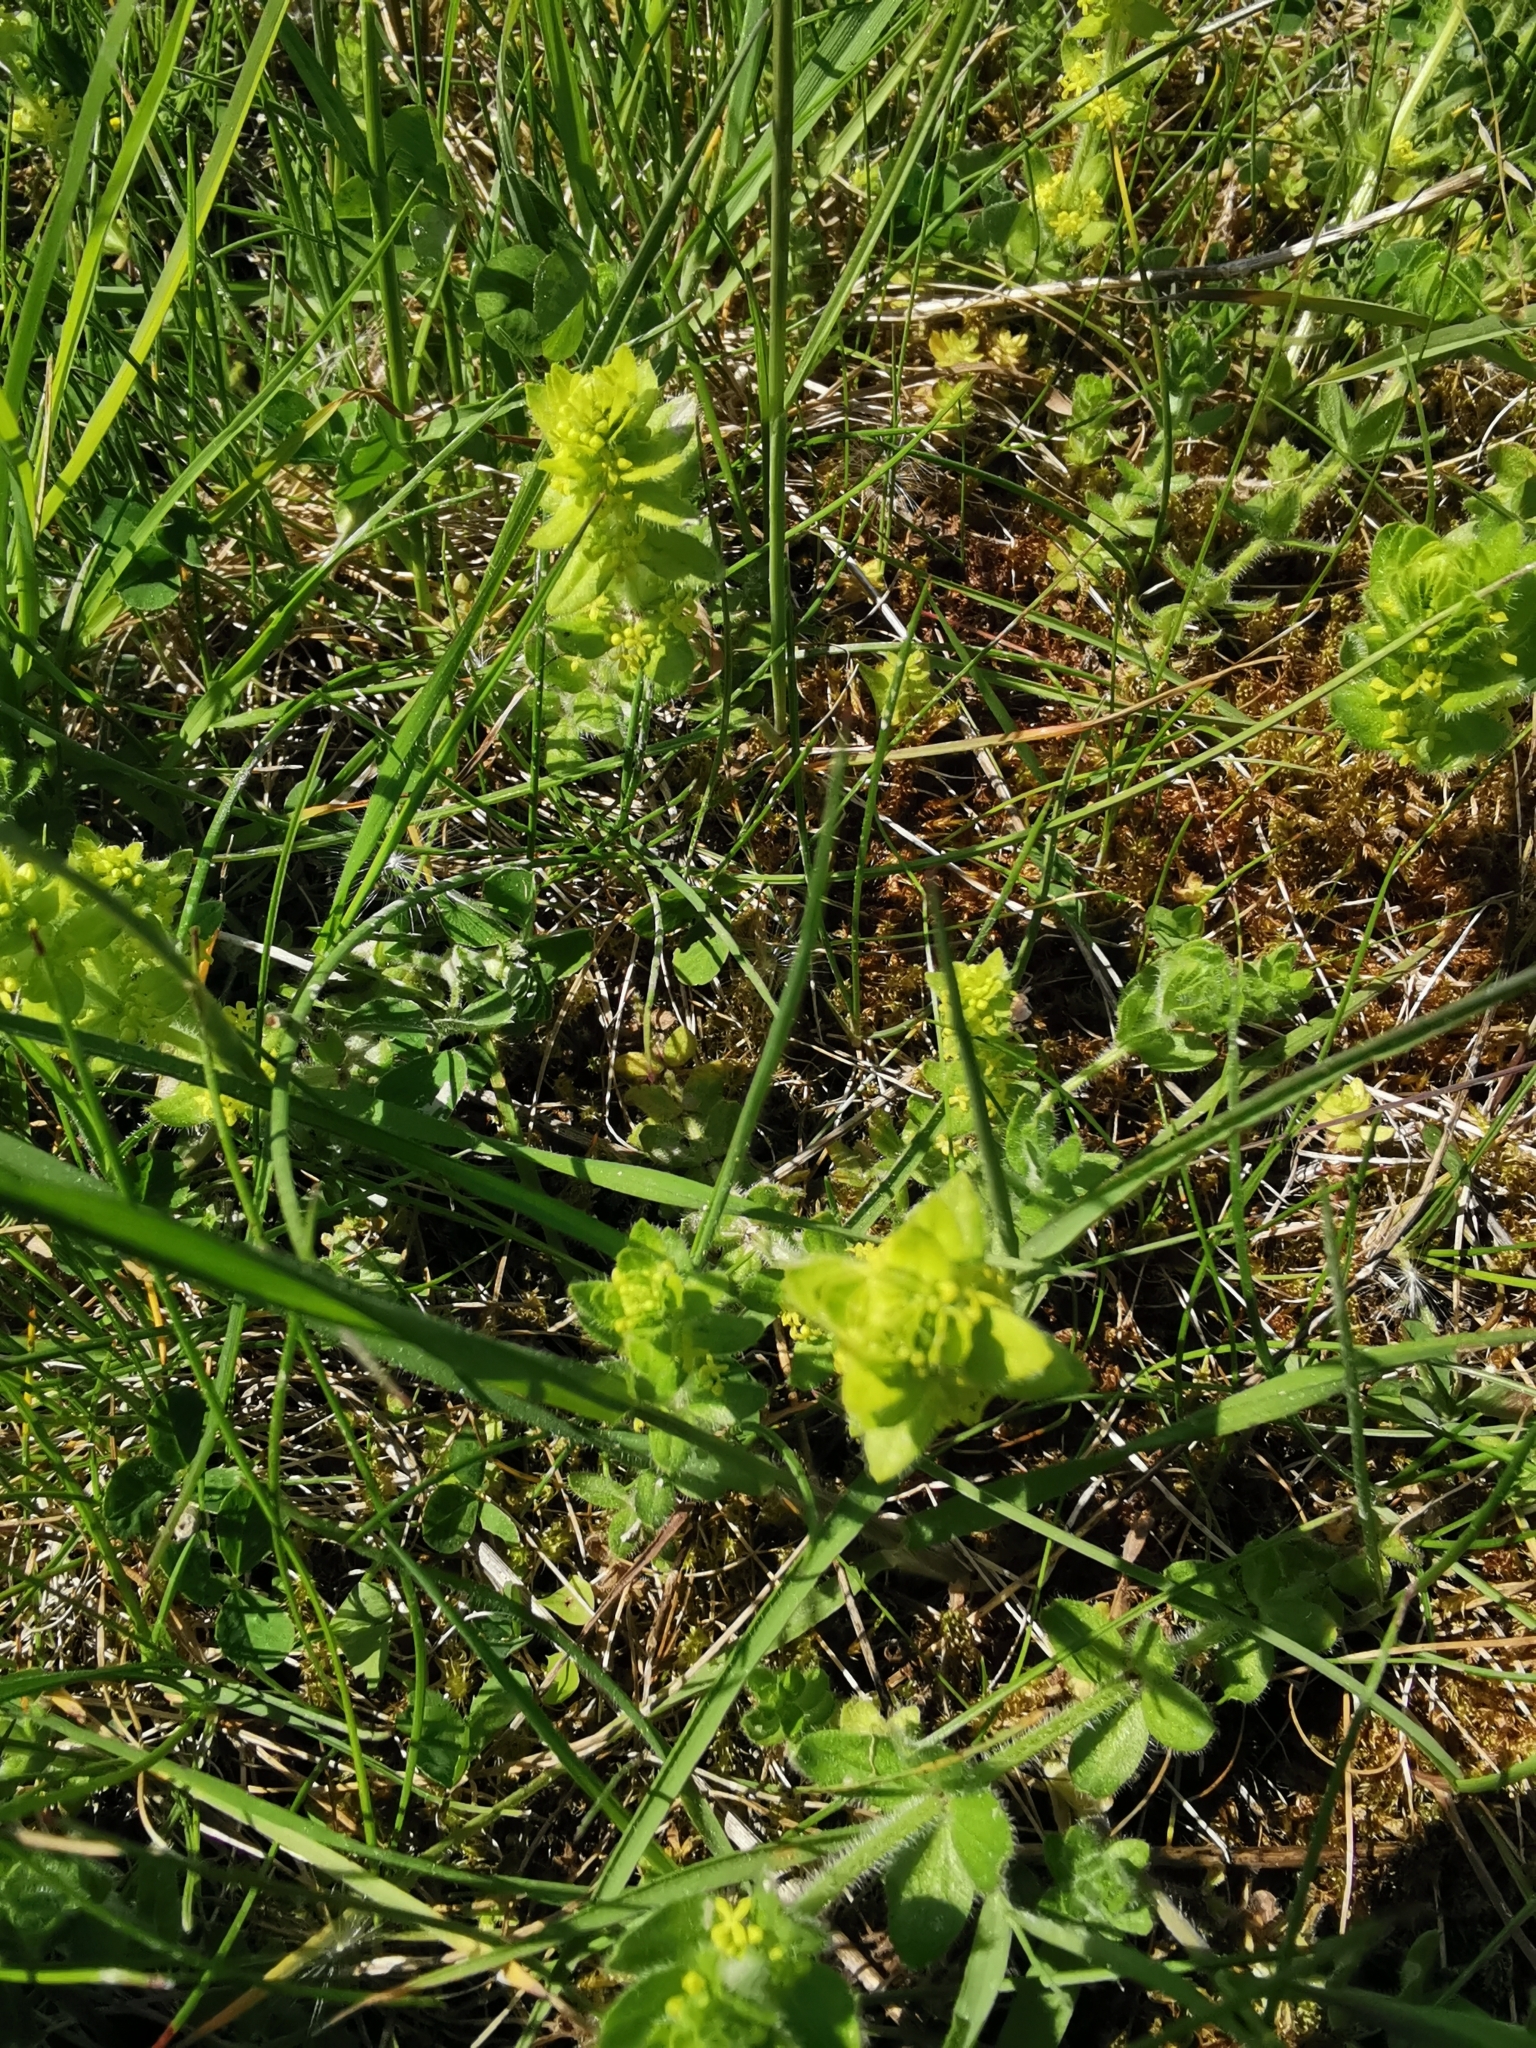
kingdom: Plantae
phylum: Tracheophyta
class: Magnoliopsida
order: Gentianales
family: Rubiaceae
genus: Cruciata
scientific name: Cruciata laevipes
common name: Crosswort
